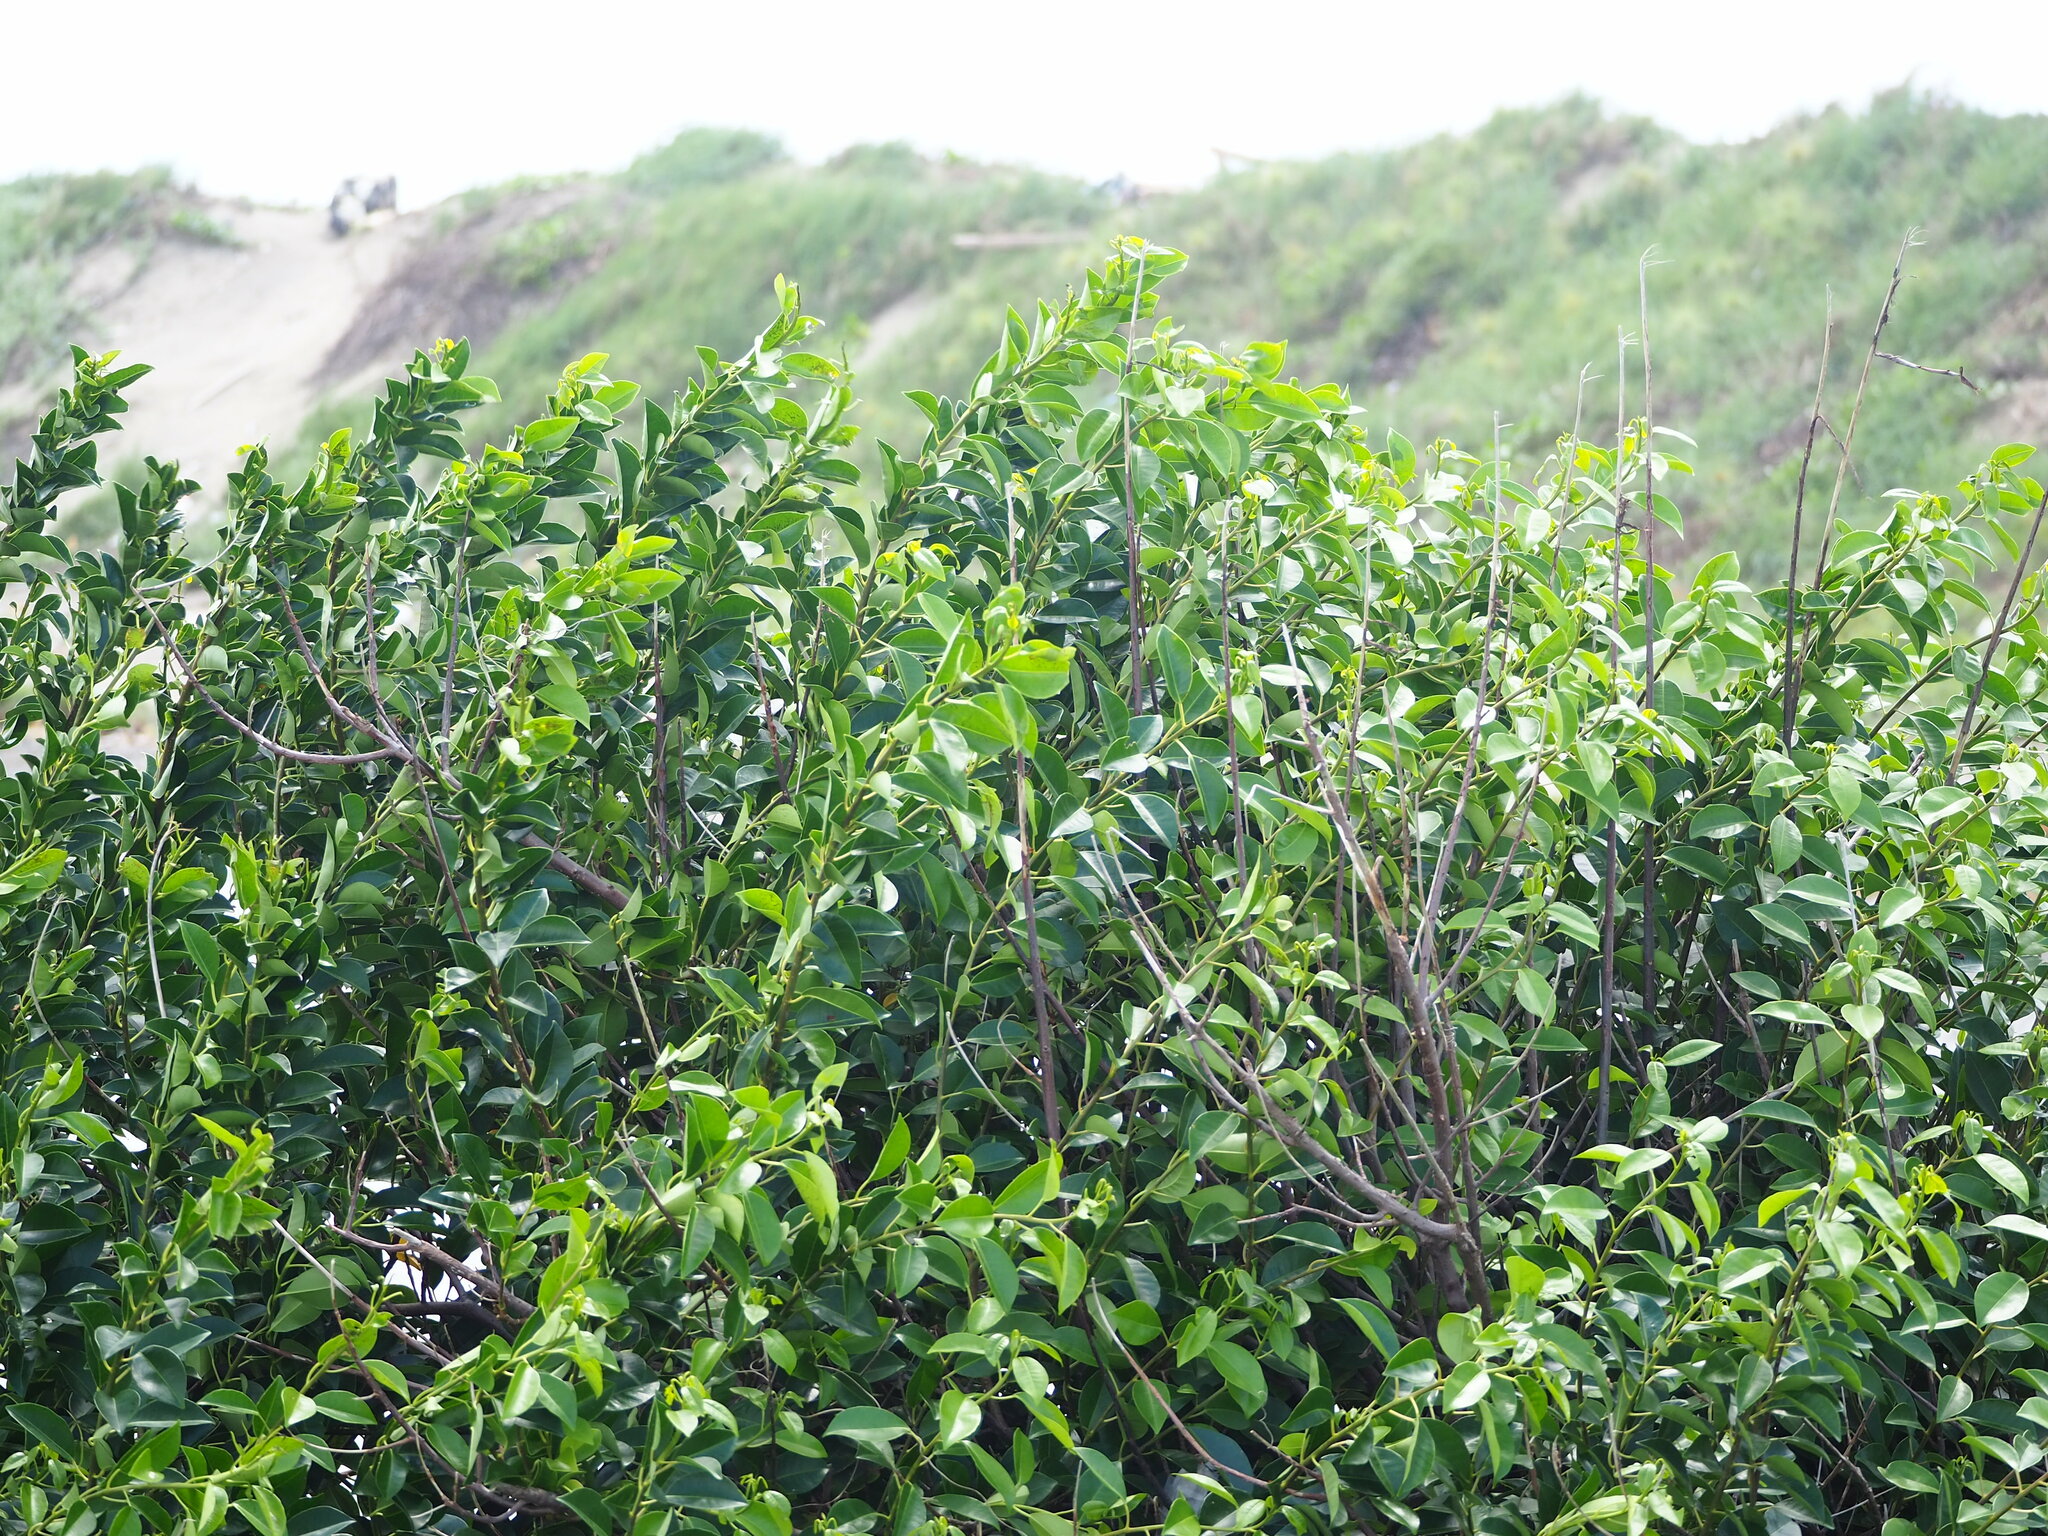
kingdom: Plantae
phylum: Tracheophyta
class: Magnoliopsida
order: Rosales
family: Moraceae
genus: Ficus
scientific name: Ficus microcarpa
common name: Chinese banyan
